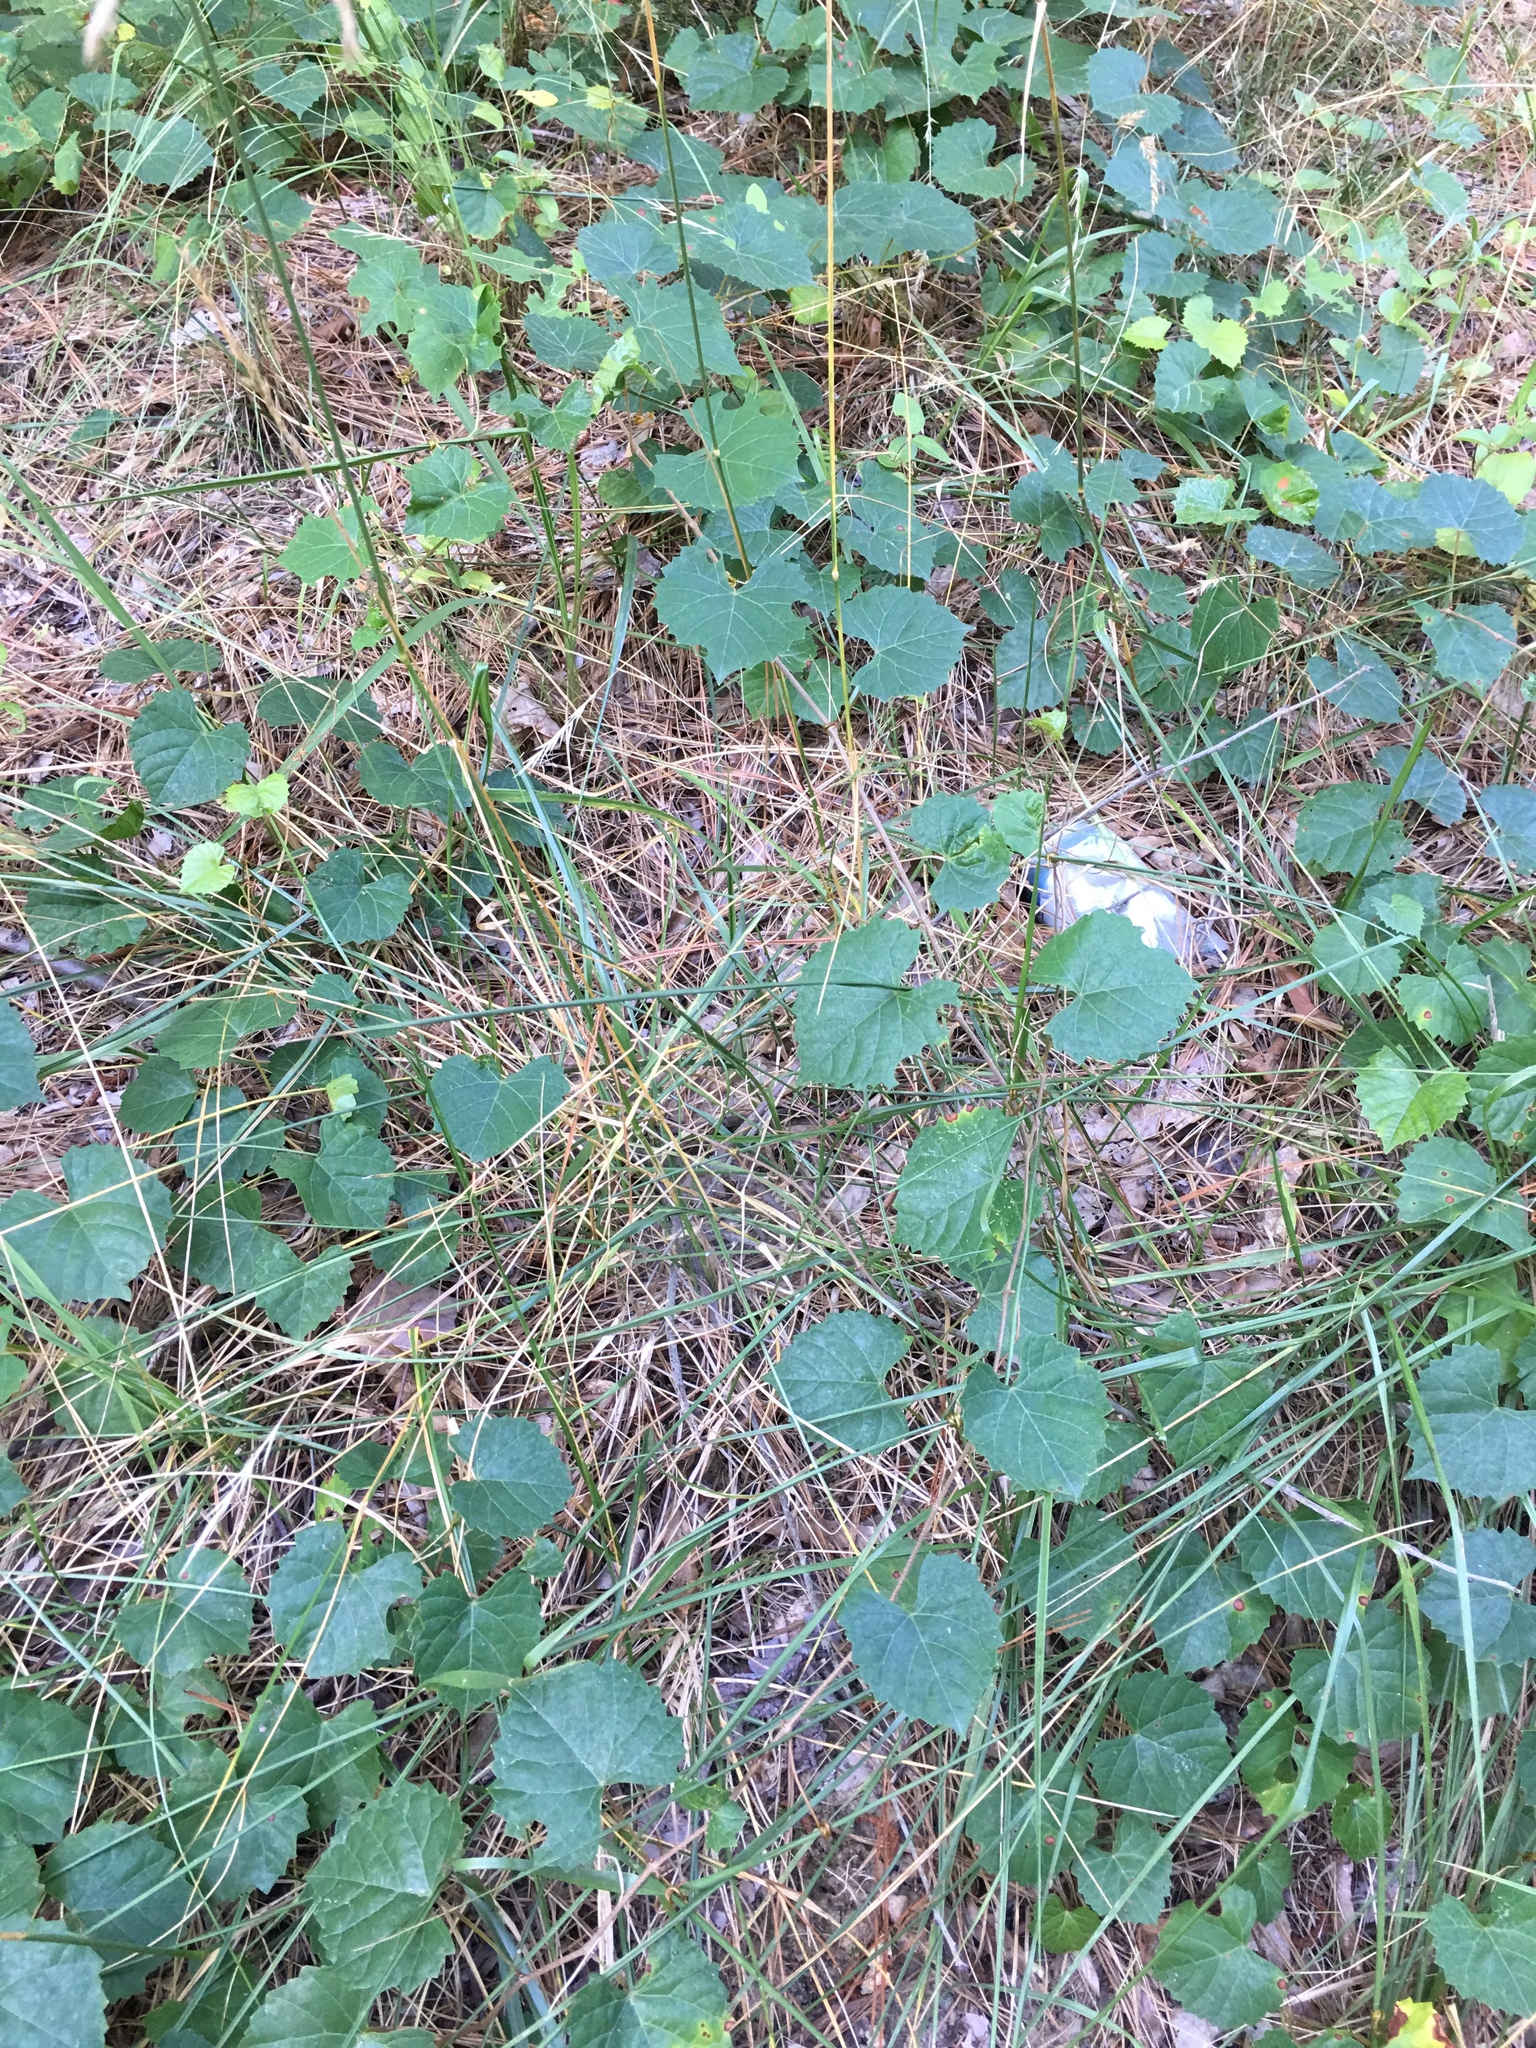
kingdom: Plantae
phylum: Tracheophyta
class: Magnoliopsida
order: Vitales
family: Vitaceae
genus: Vitis
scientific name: Vitis rotundifolia
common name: Muscadine grape
